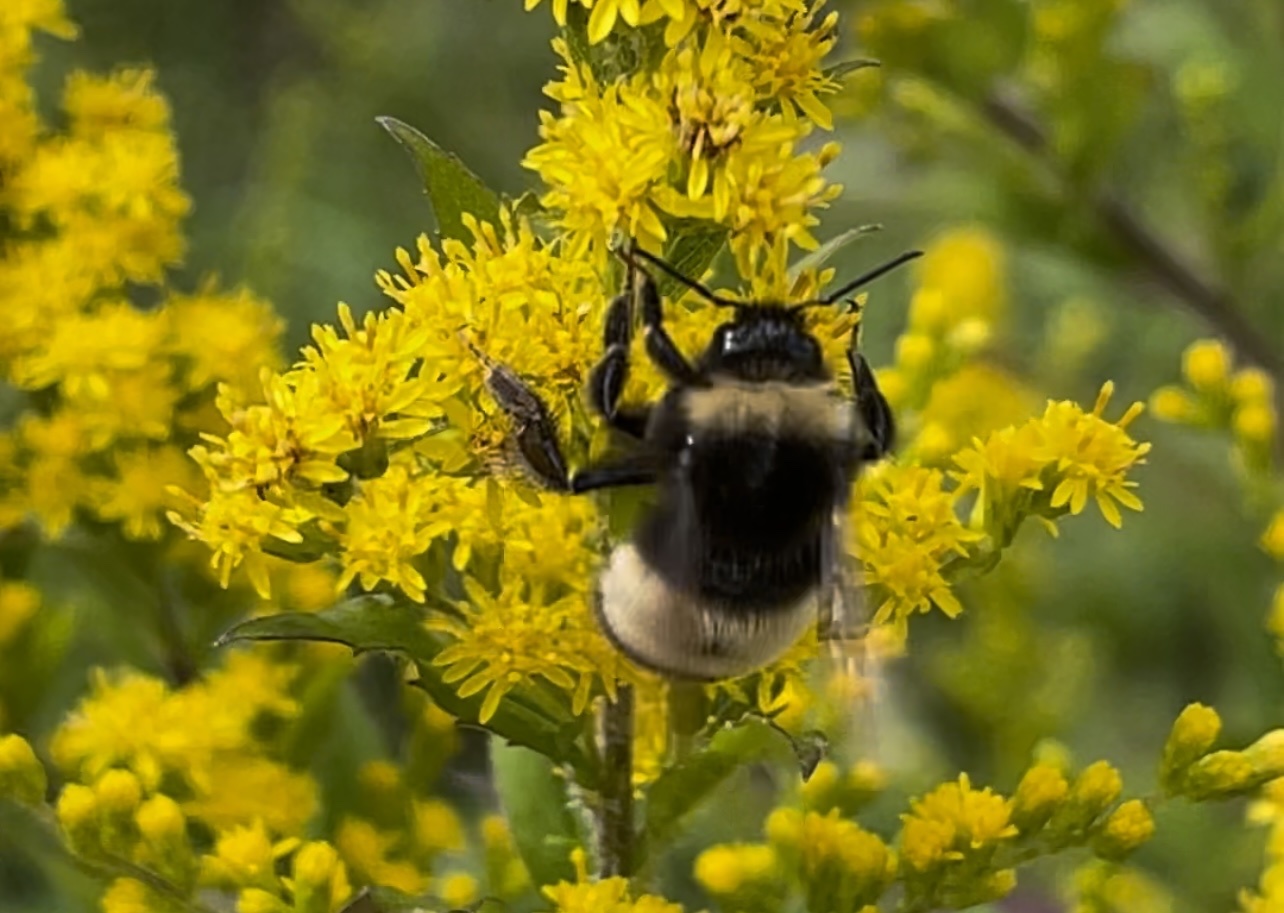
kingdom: Animalia
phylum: Arthropoda
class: Insecta
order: Hymenoptera
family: Apidae
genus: Bombus
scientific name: Bombus terricola
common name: Yellow-banded bumble bee
